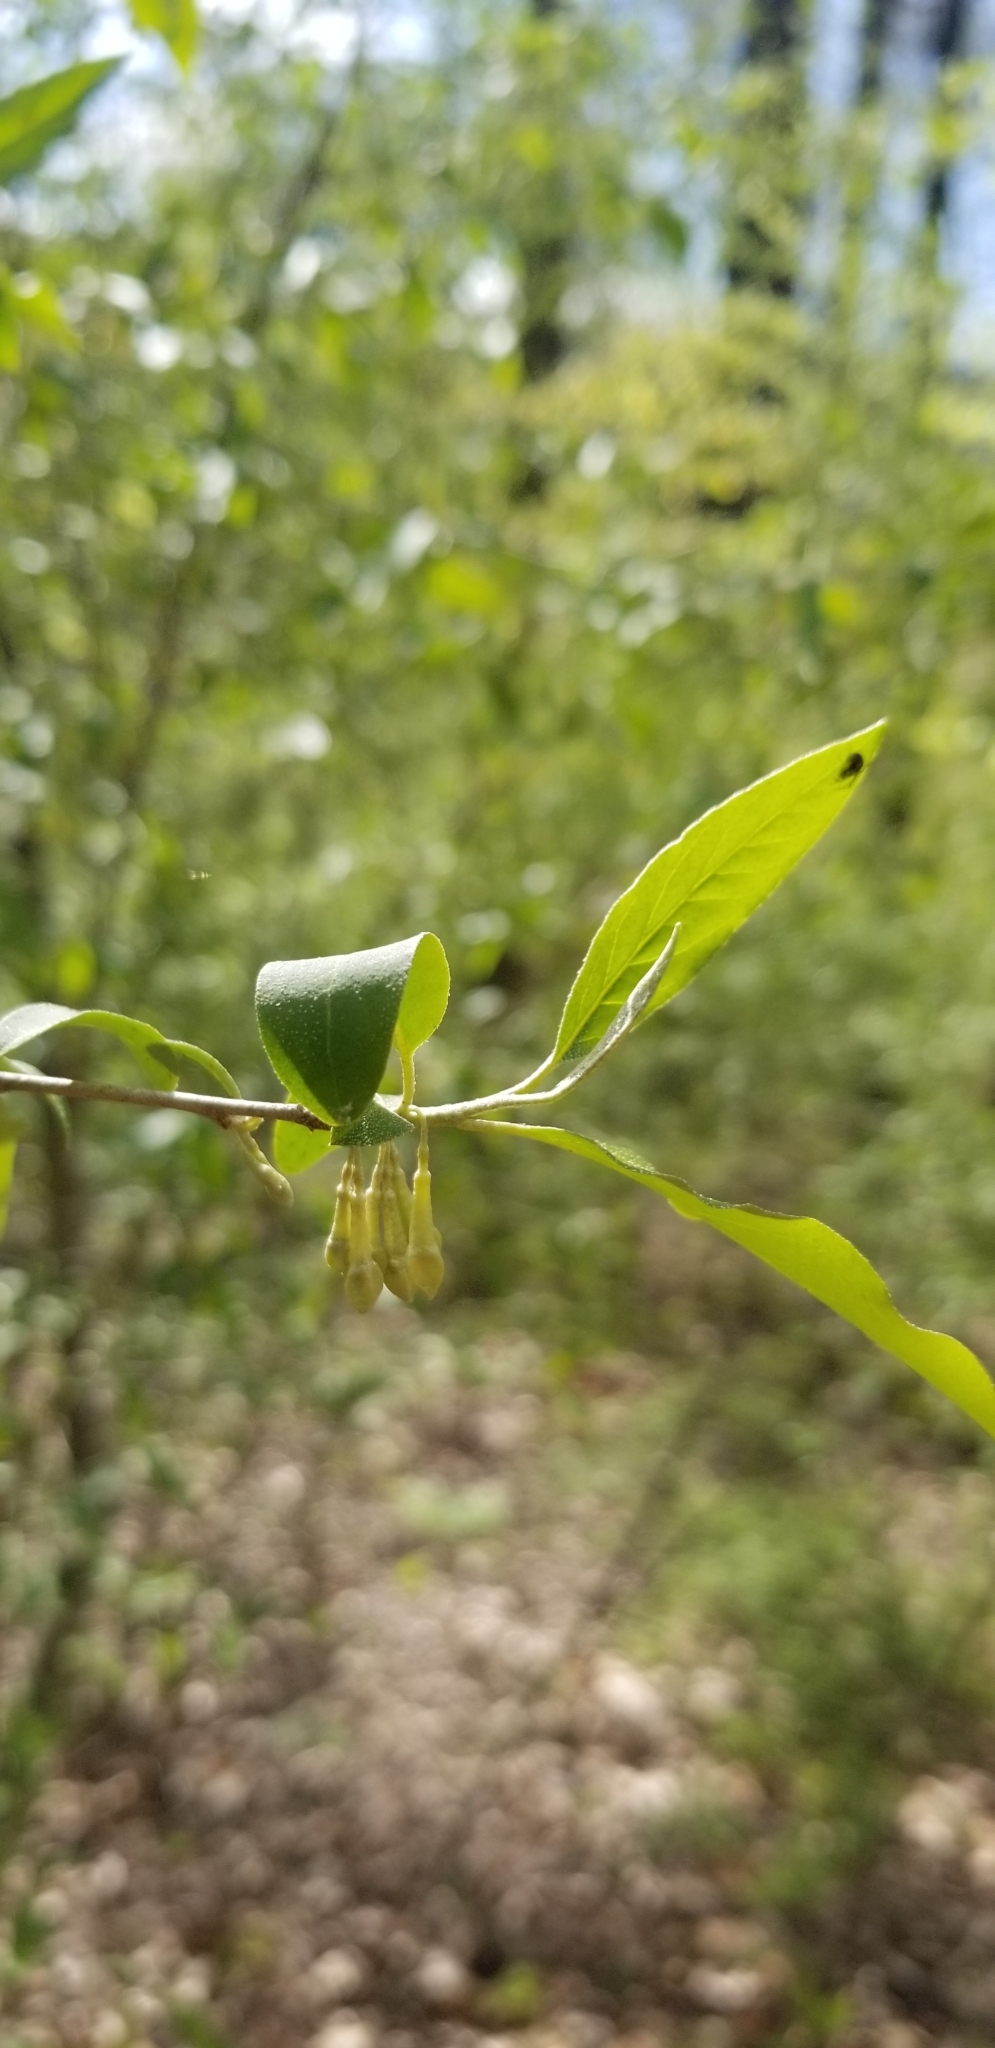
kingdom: Plantae
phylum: Tracheophyta
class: Magnoliopsida
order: Rosales
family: Elaeagnaceae
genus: Elaeagnus
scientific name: Elaeagnus umbellata
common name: Autumn olive
